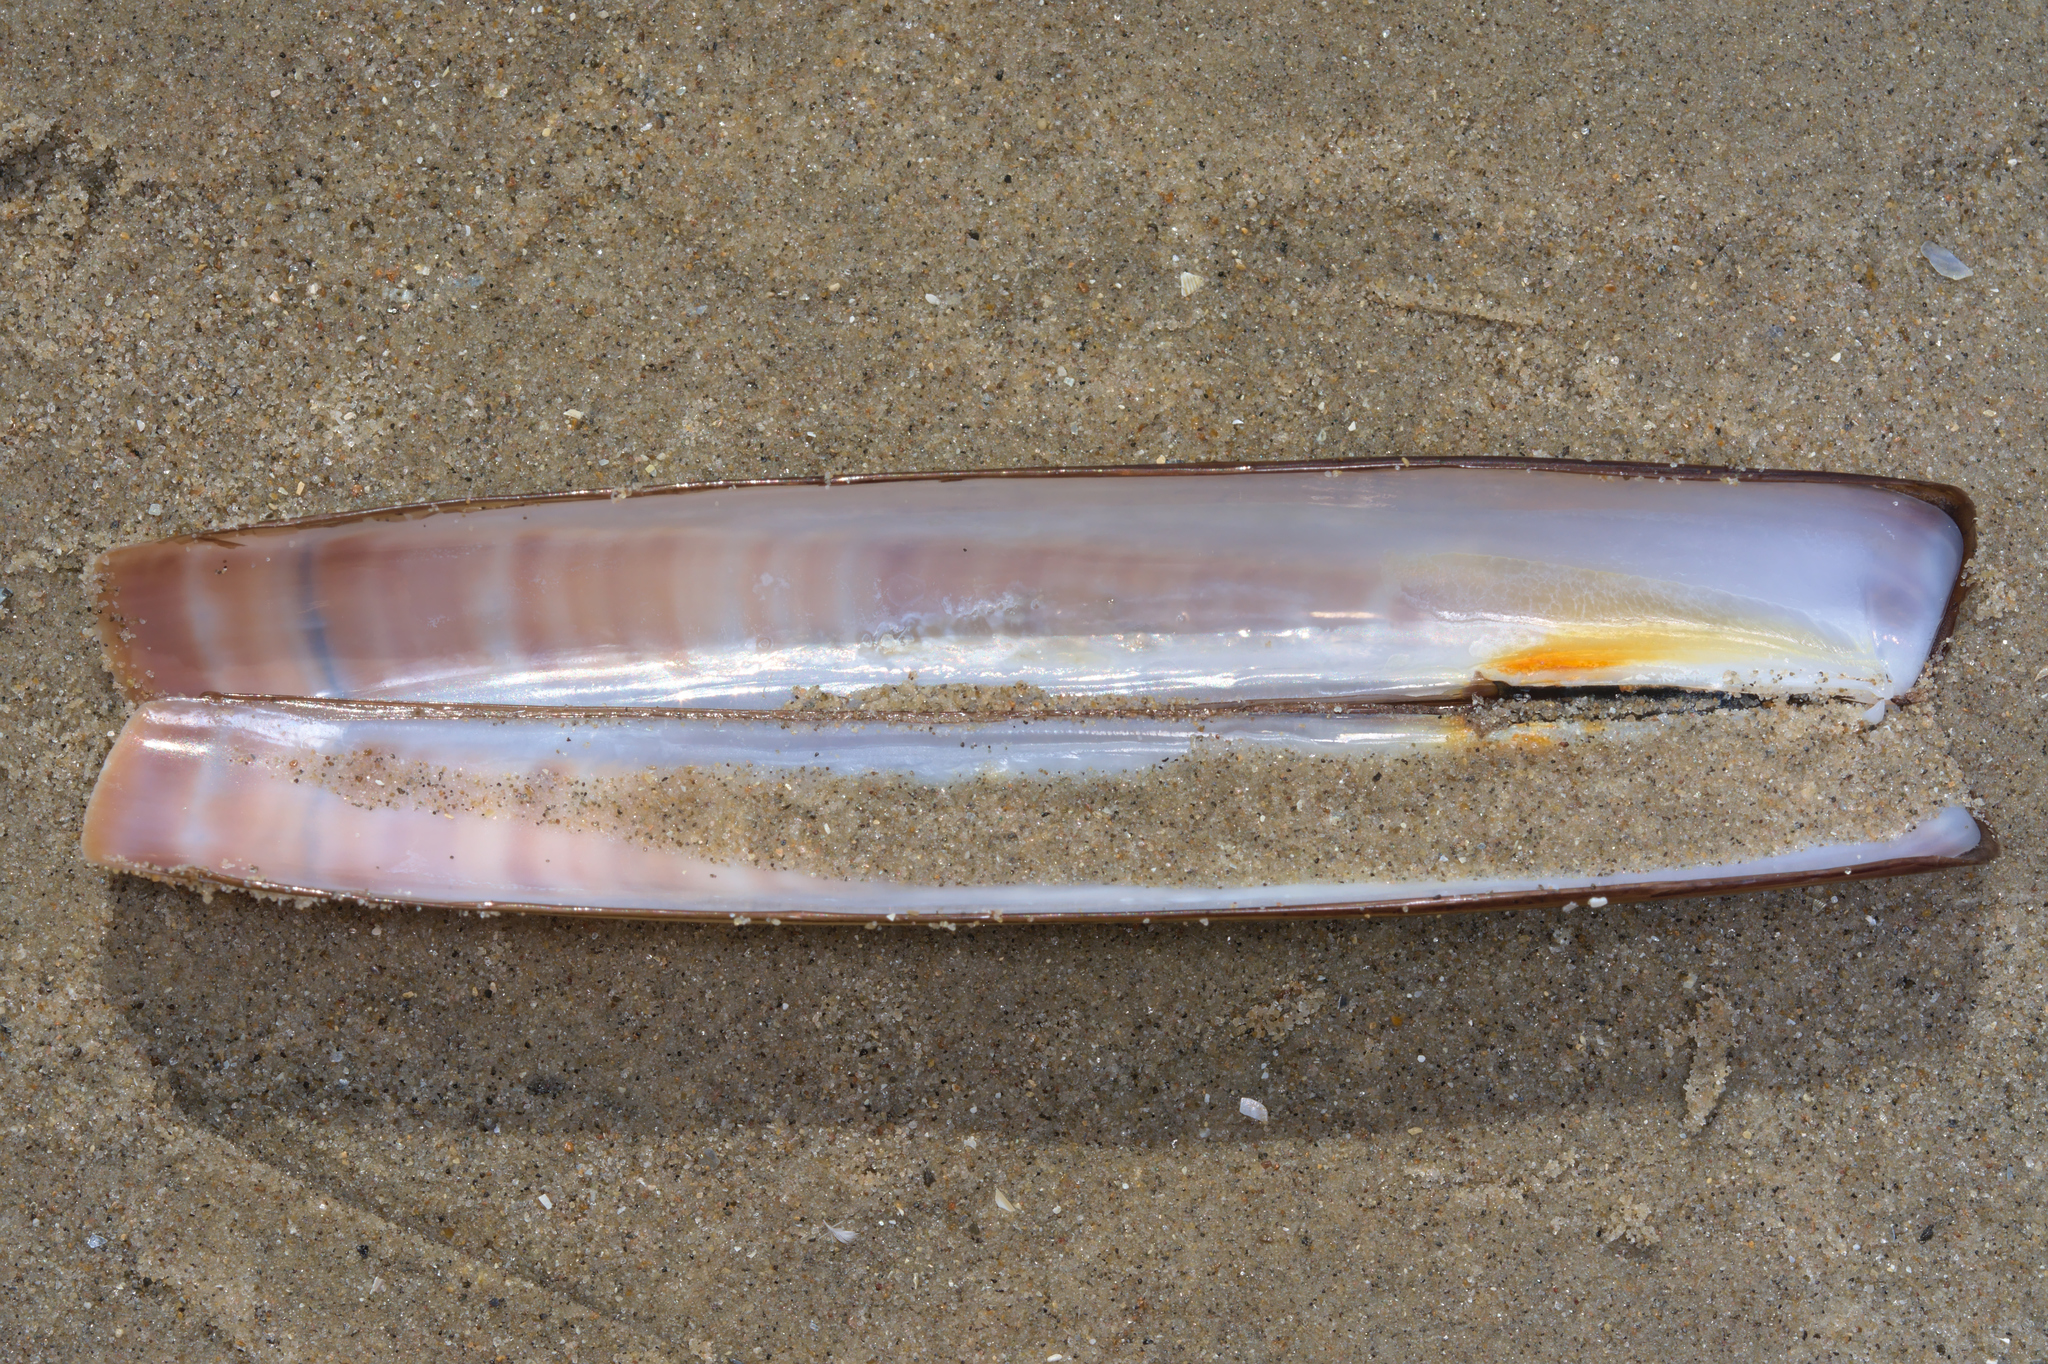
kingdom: Animalia
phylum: Mollusca
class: Bivalvia
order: Adapedonta
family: Pharidae
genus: Ensis
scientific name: Ensis leei
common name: American jack knife clam
